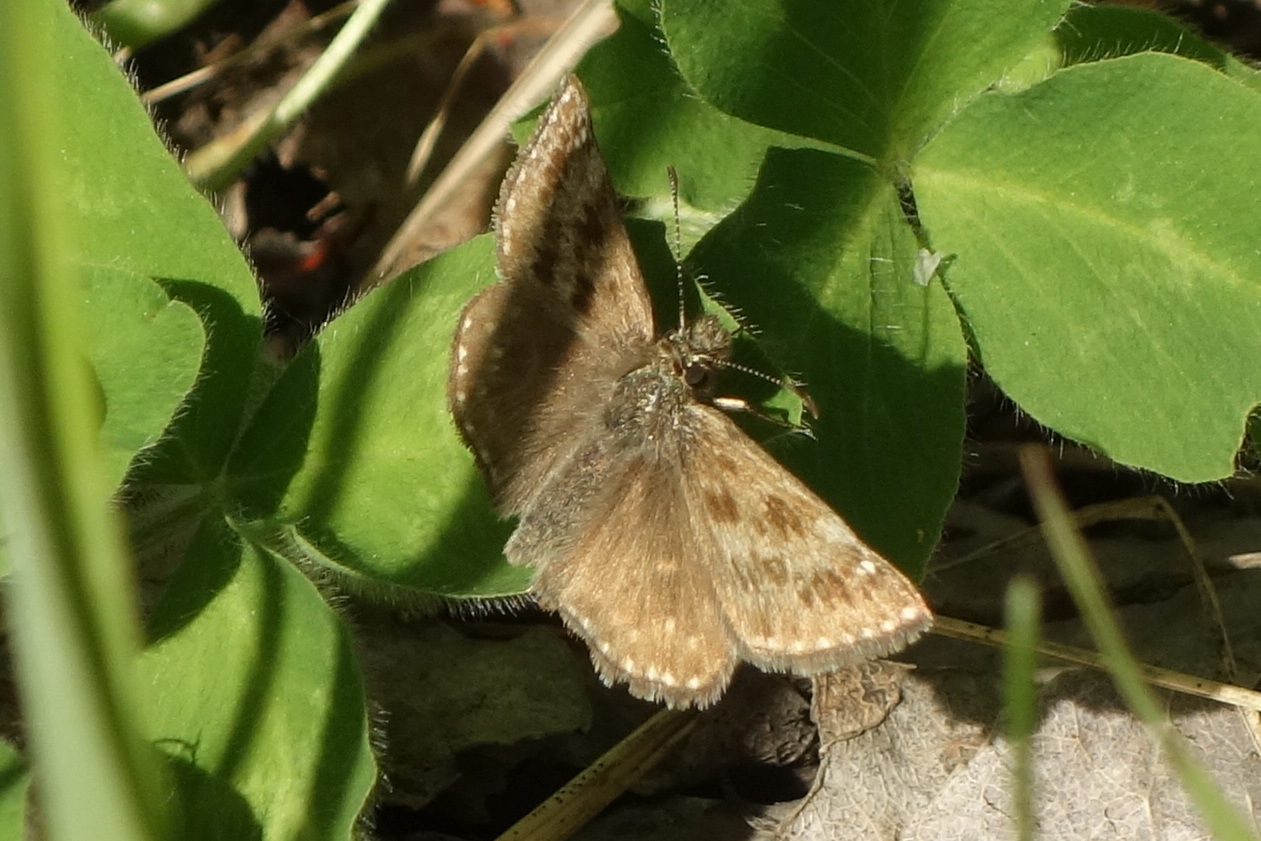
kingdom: Animalia
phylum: Arthropoda
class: Insecta
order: Lepidoptera
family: Hesperiidae
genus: Erynnis
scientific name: Erynnis tages
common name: Dingy skipper
